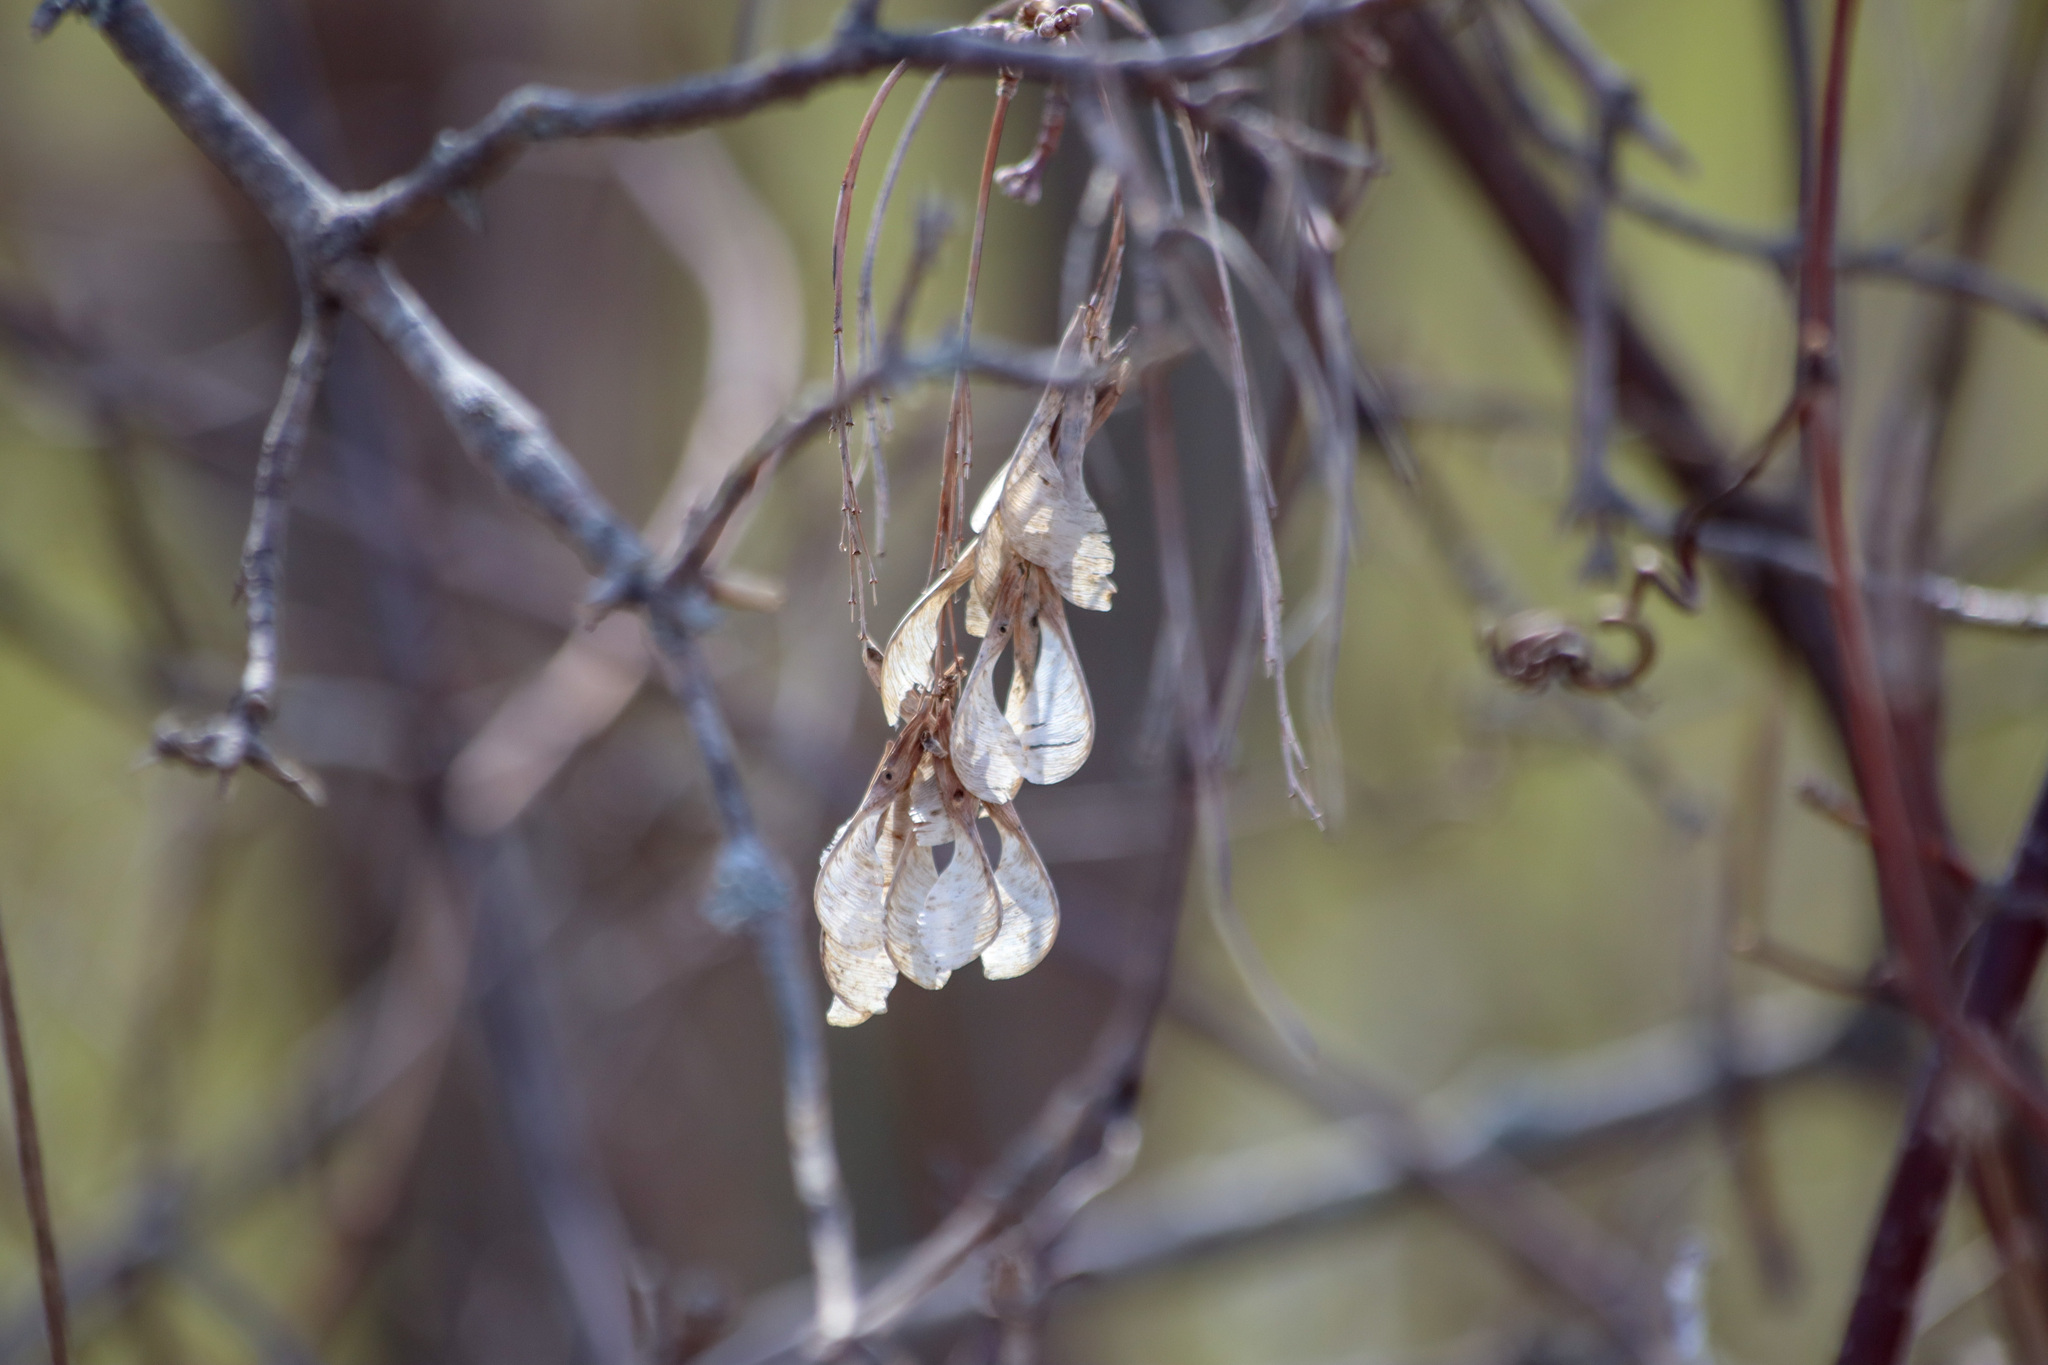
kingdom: Plantae
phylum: Tracheophyta
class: Magnoliopsida
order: Sapindales
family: Sapindaceae
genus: Acer
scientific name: Acer negundo
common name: Ashleaf maple
